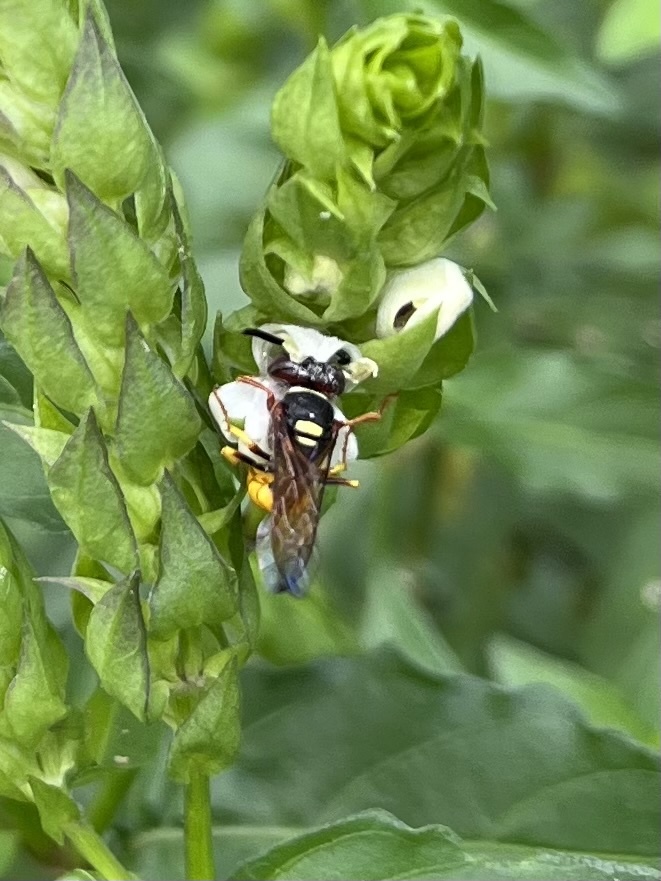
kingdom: Animalia
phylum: Arthropoda
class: Insecta
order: Hymenoptera
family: Crabronidae
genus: Philanthus
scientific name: Philanthus triangulum
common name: Bee wolf
